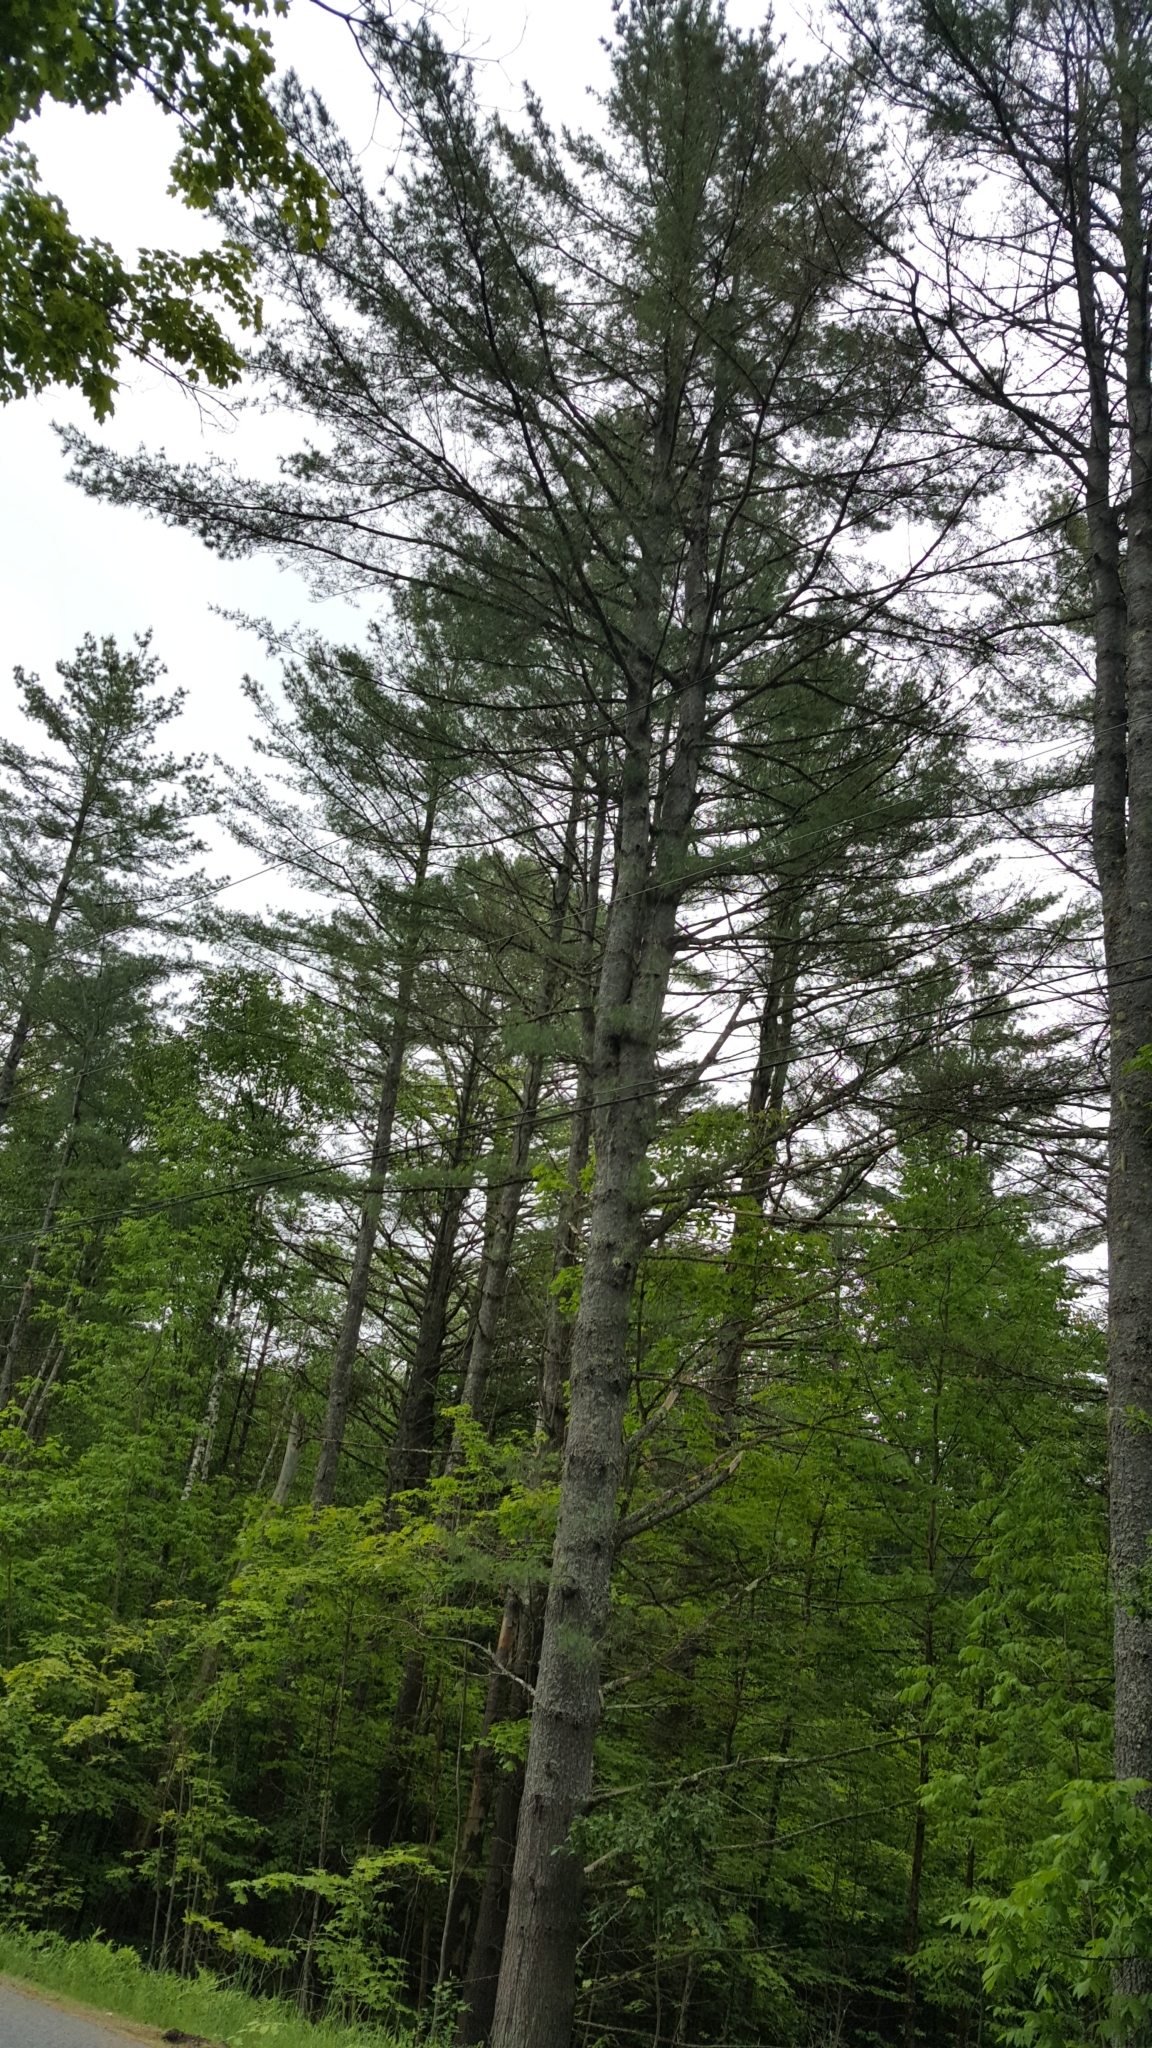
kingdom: Plantae
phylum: Tracheophyta
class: Pinopsida
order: Pinales
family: Pinaceae
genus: Pinus
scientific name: Pinus strobus
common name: Weymouth pine
